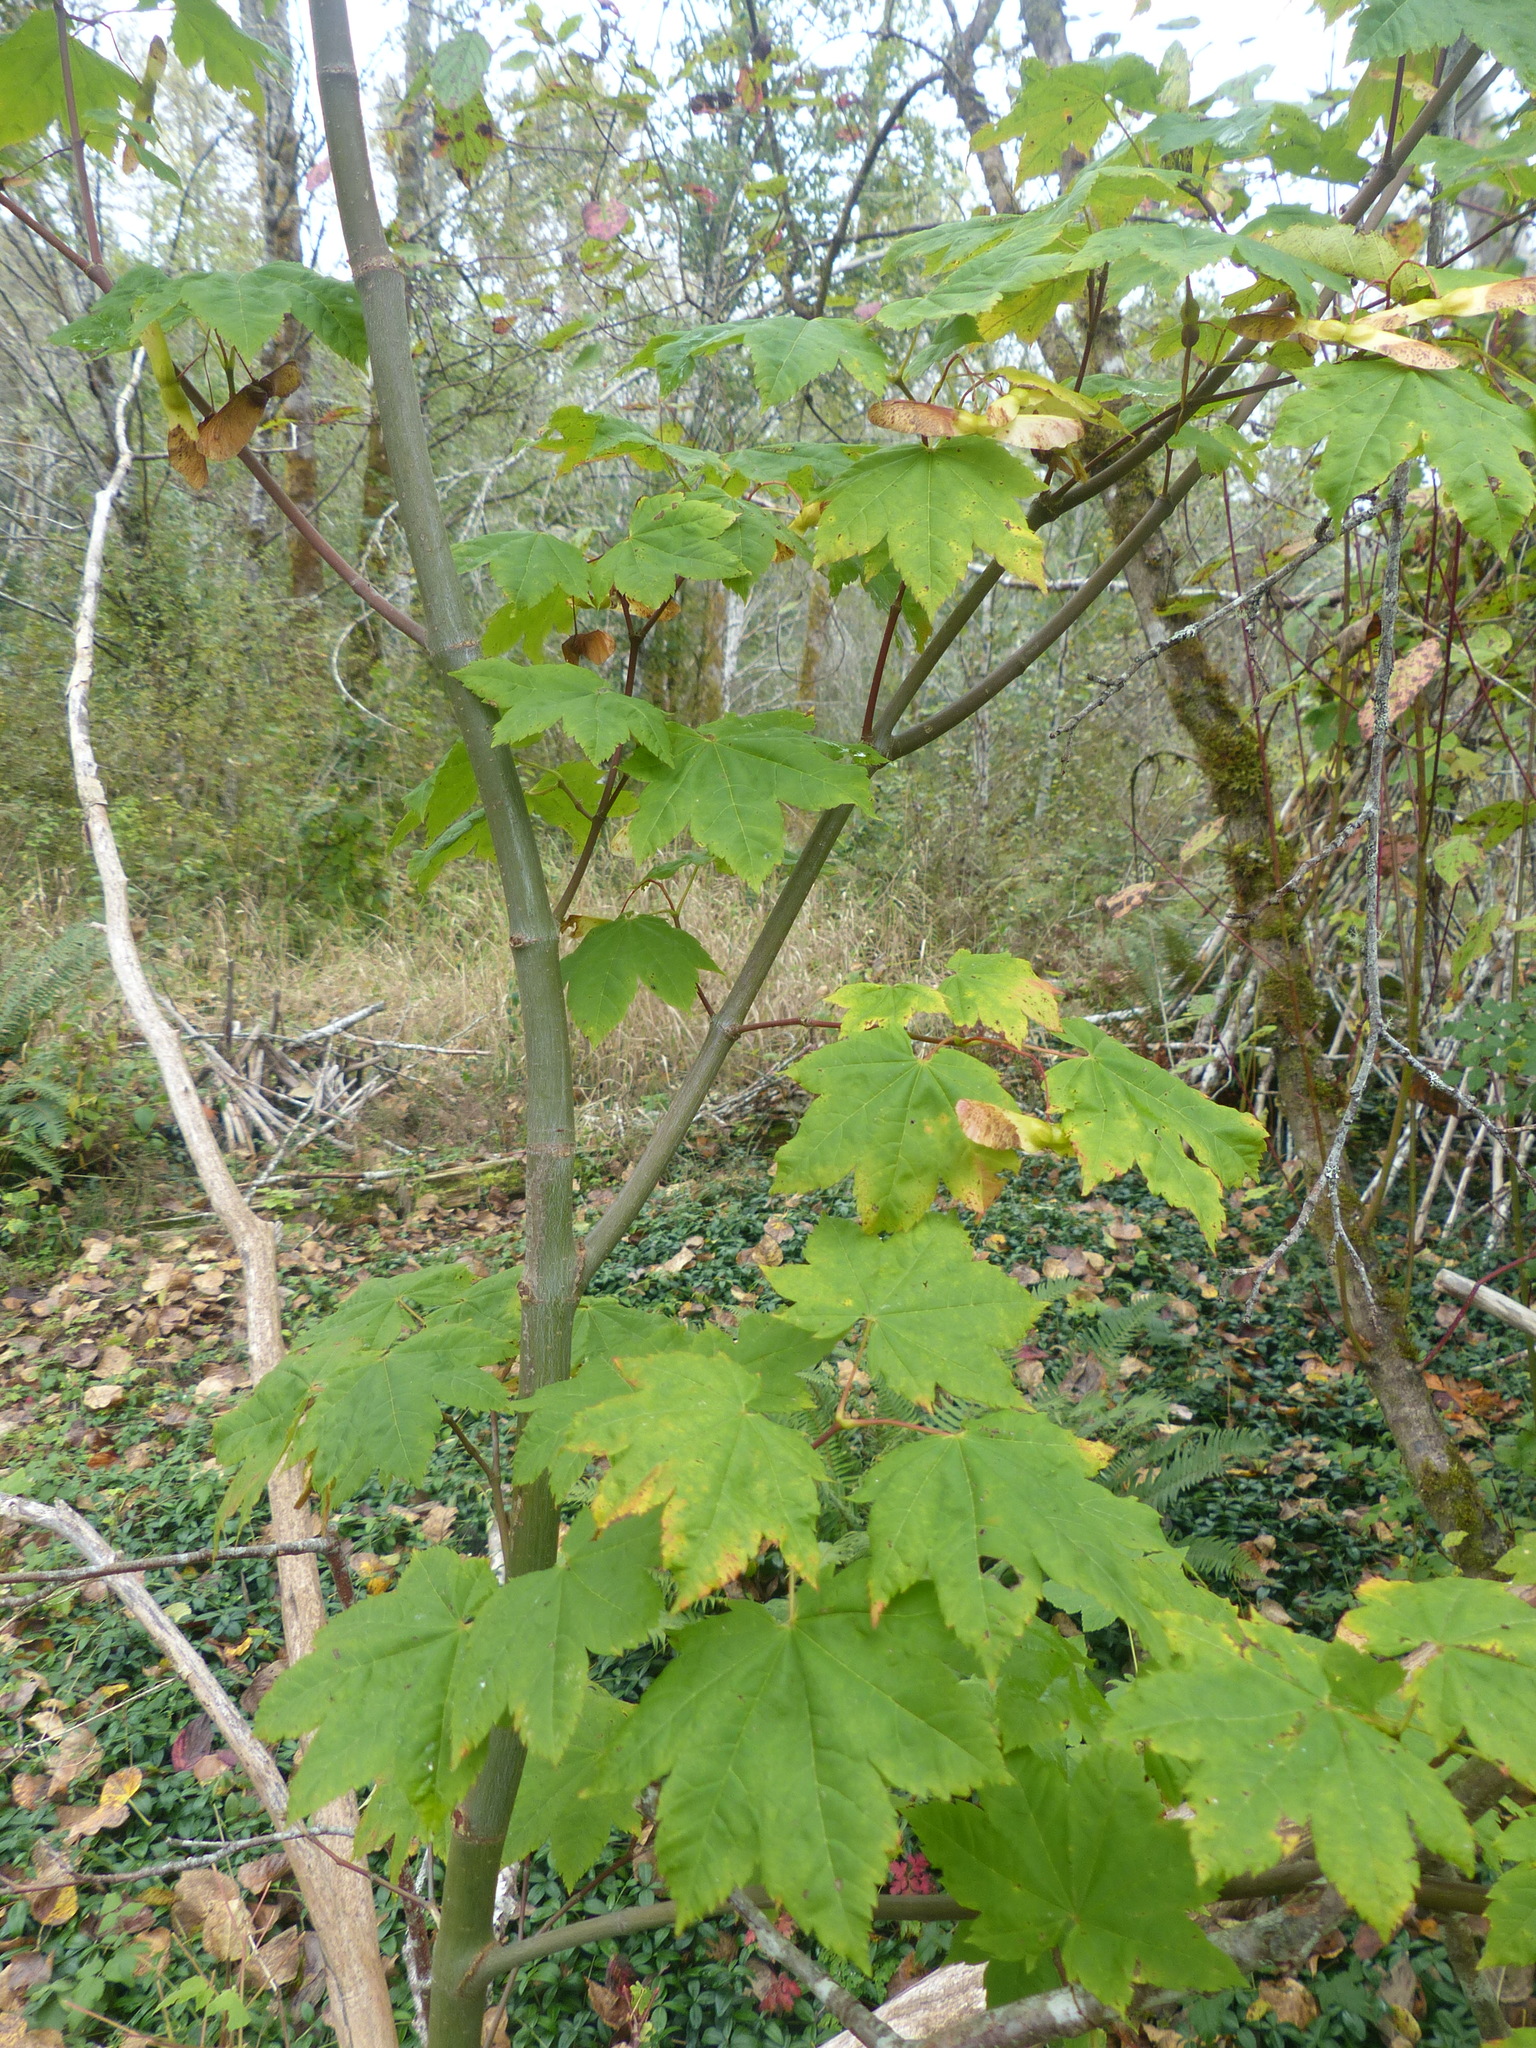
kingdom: Plantae
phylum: Tracheophyta
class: Magnoliopsida
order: Sapindales
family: Sapindaceae
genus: Acer
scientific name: Acer circinatum
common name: Vine maple
